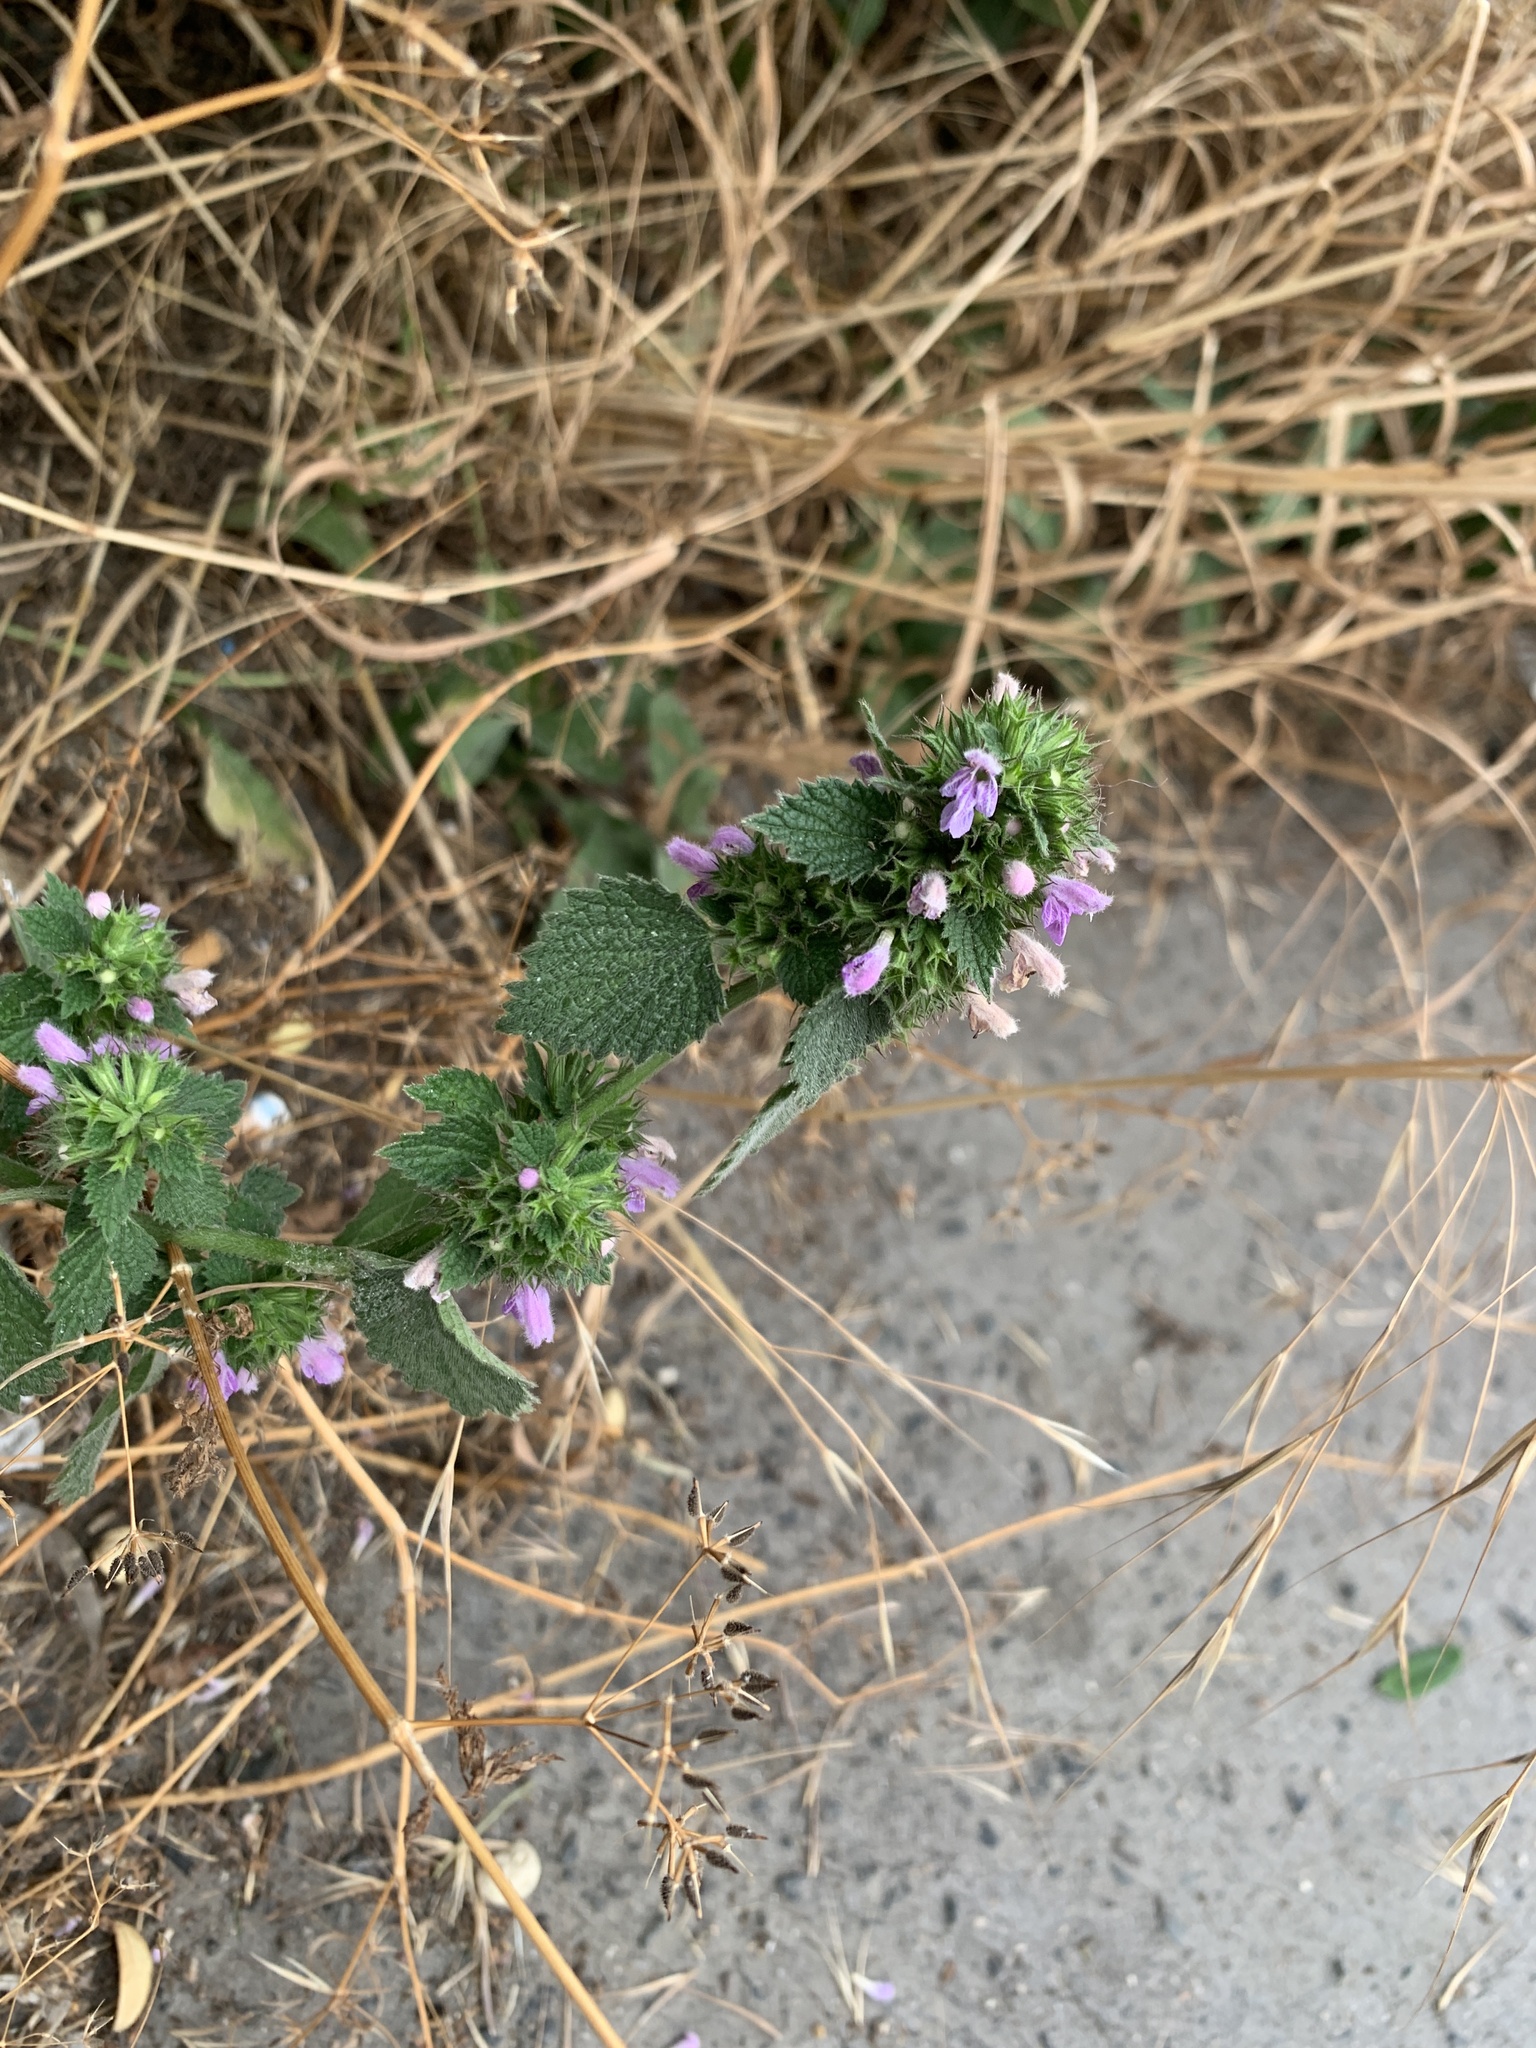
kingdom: Plantae
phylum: Tracheophyta
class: Magnoliopsida
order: Lamiales
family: Lamiaceae
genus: Ballota
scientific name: Ballota nigra
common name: Black horehound
